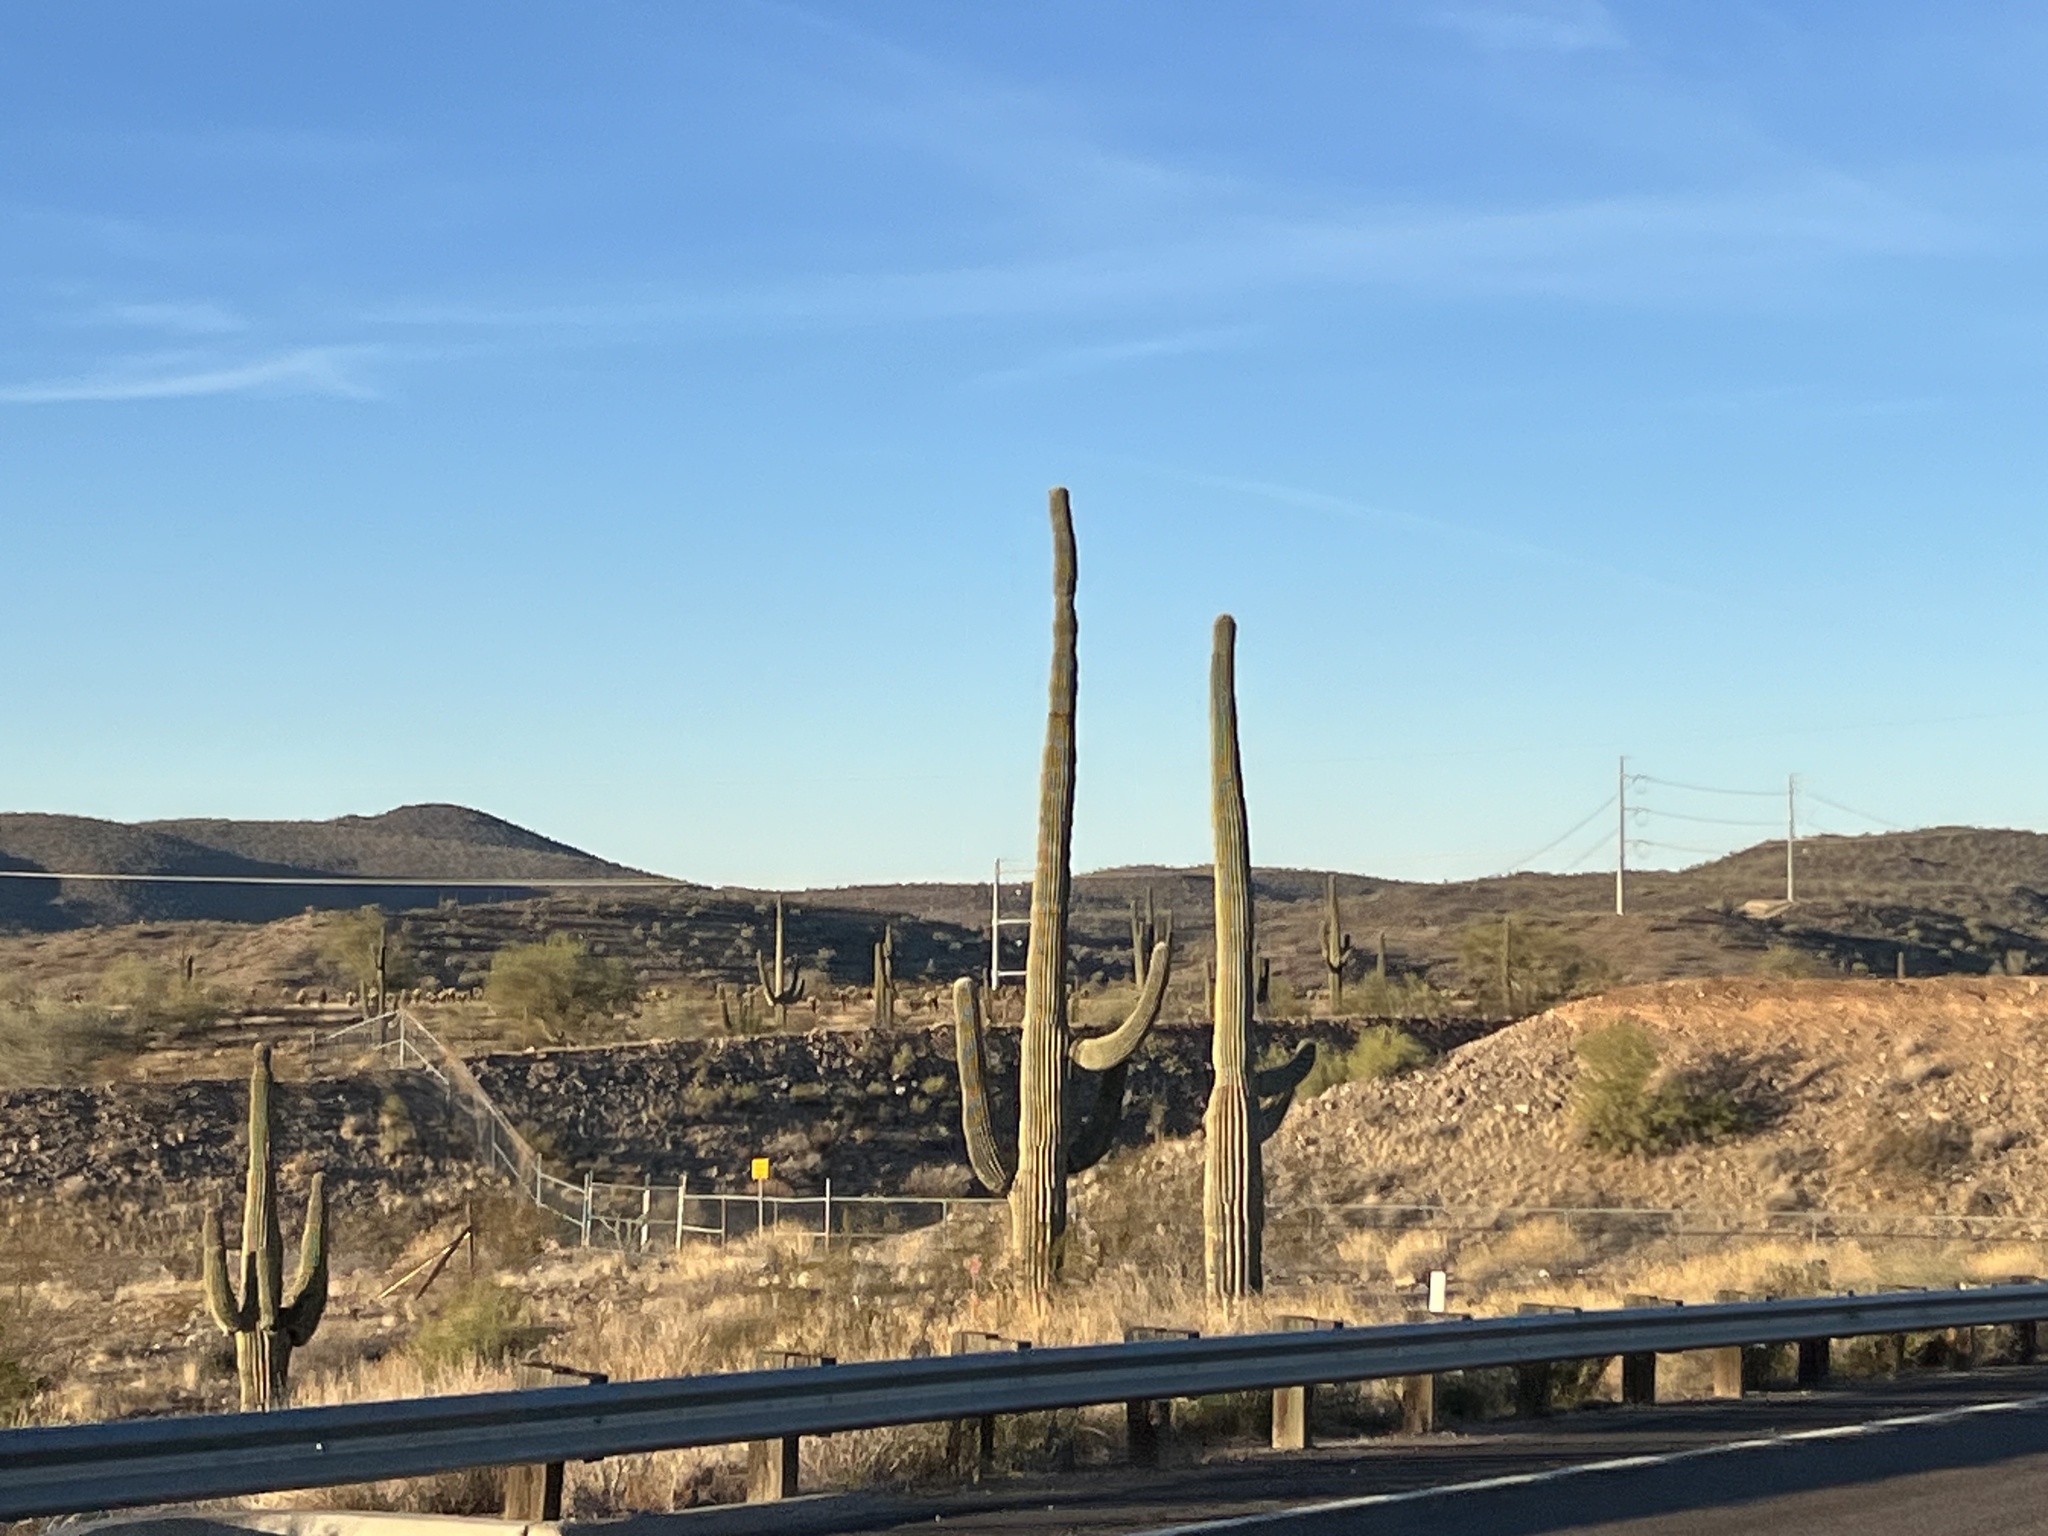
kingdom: Plantae
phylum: Tracheophyta
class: Magnoliopsida
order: Caryophyllales
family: Cactaceae
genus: Carnegiea
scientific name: Carnegiea gigantea
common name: Saguaro
